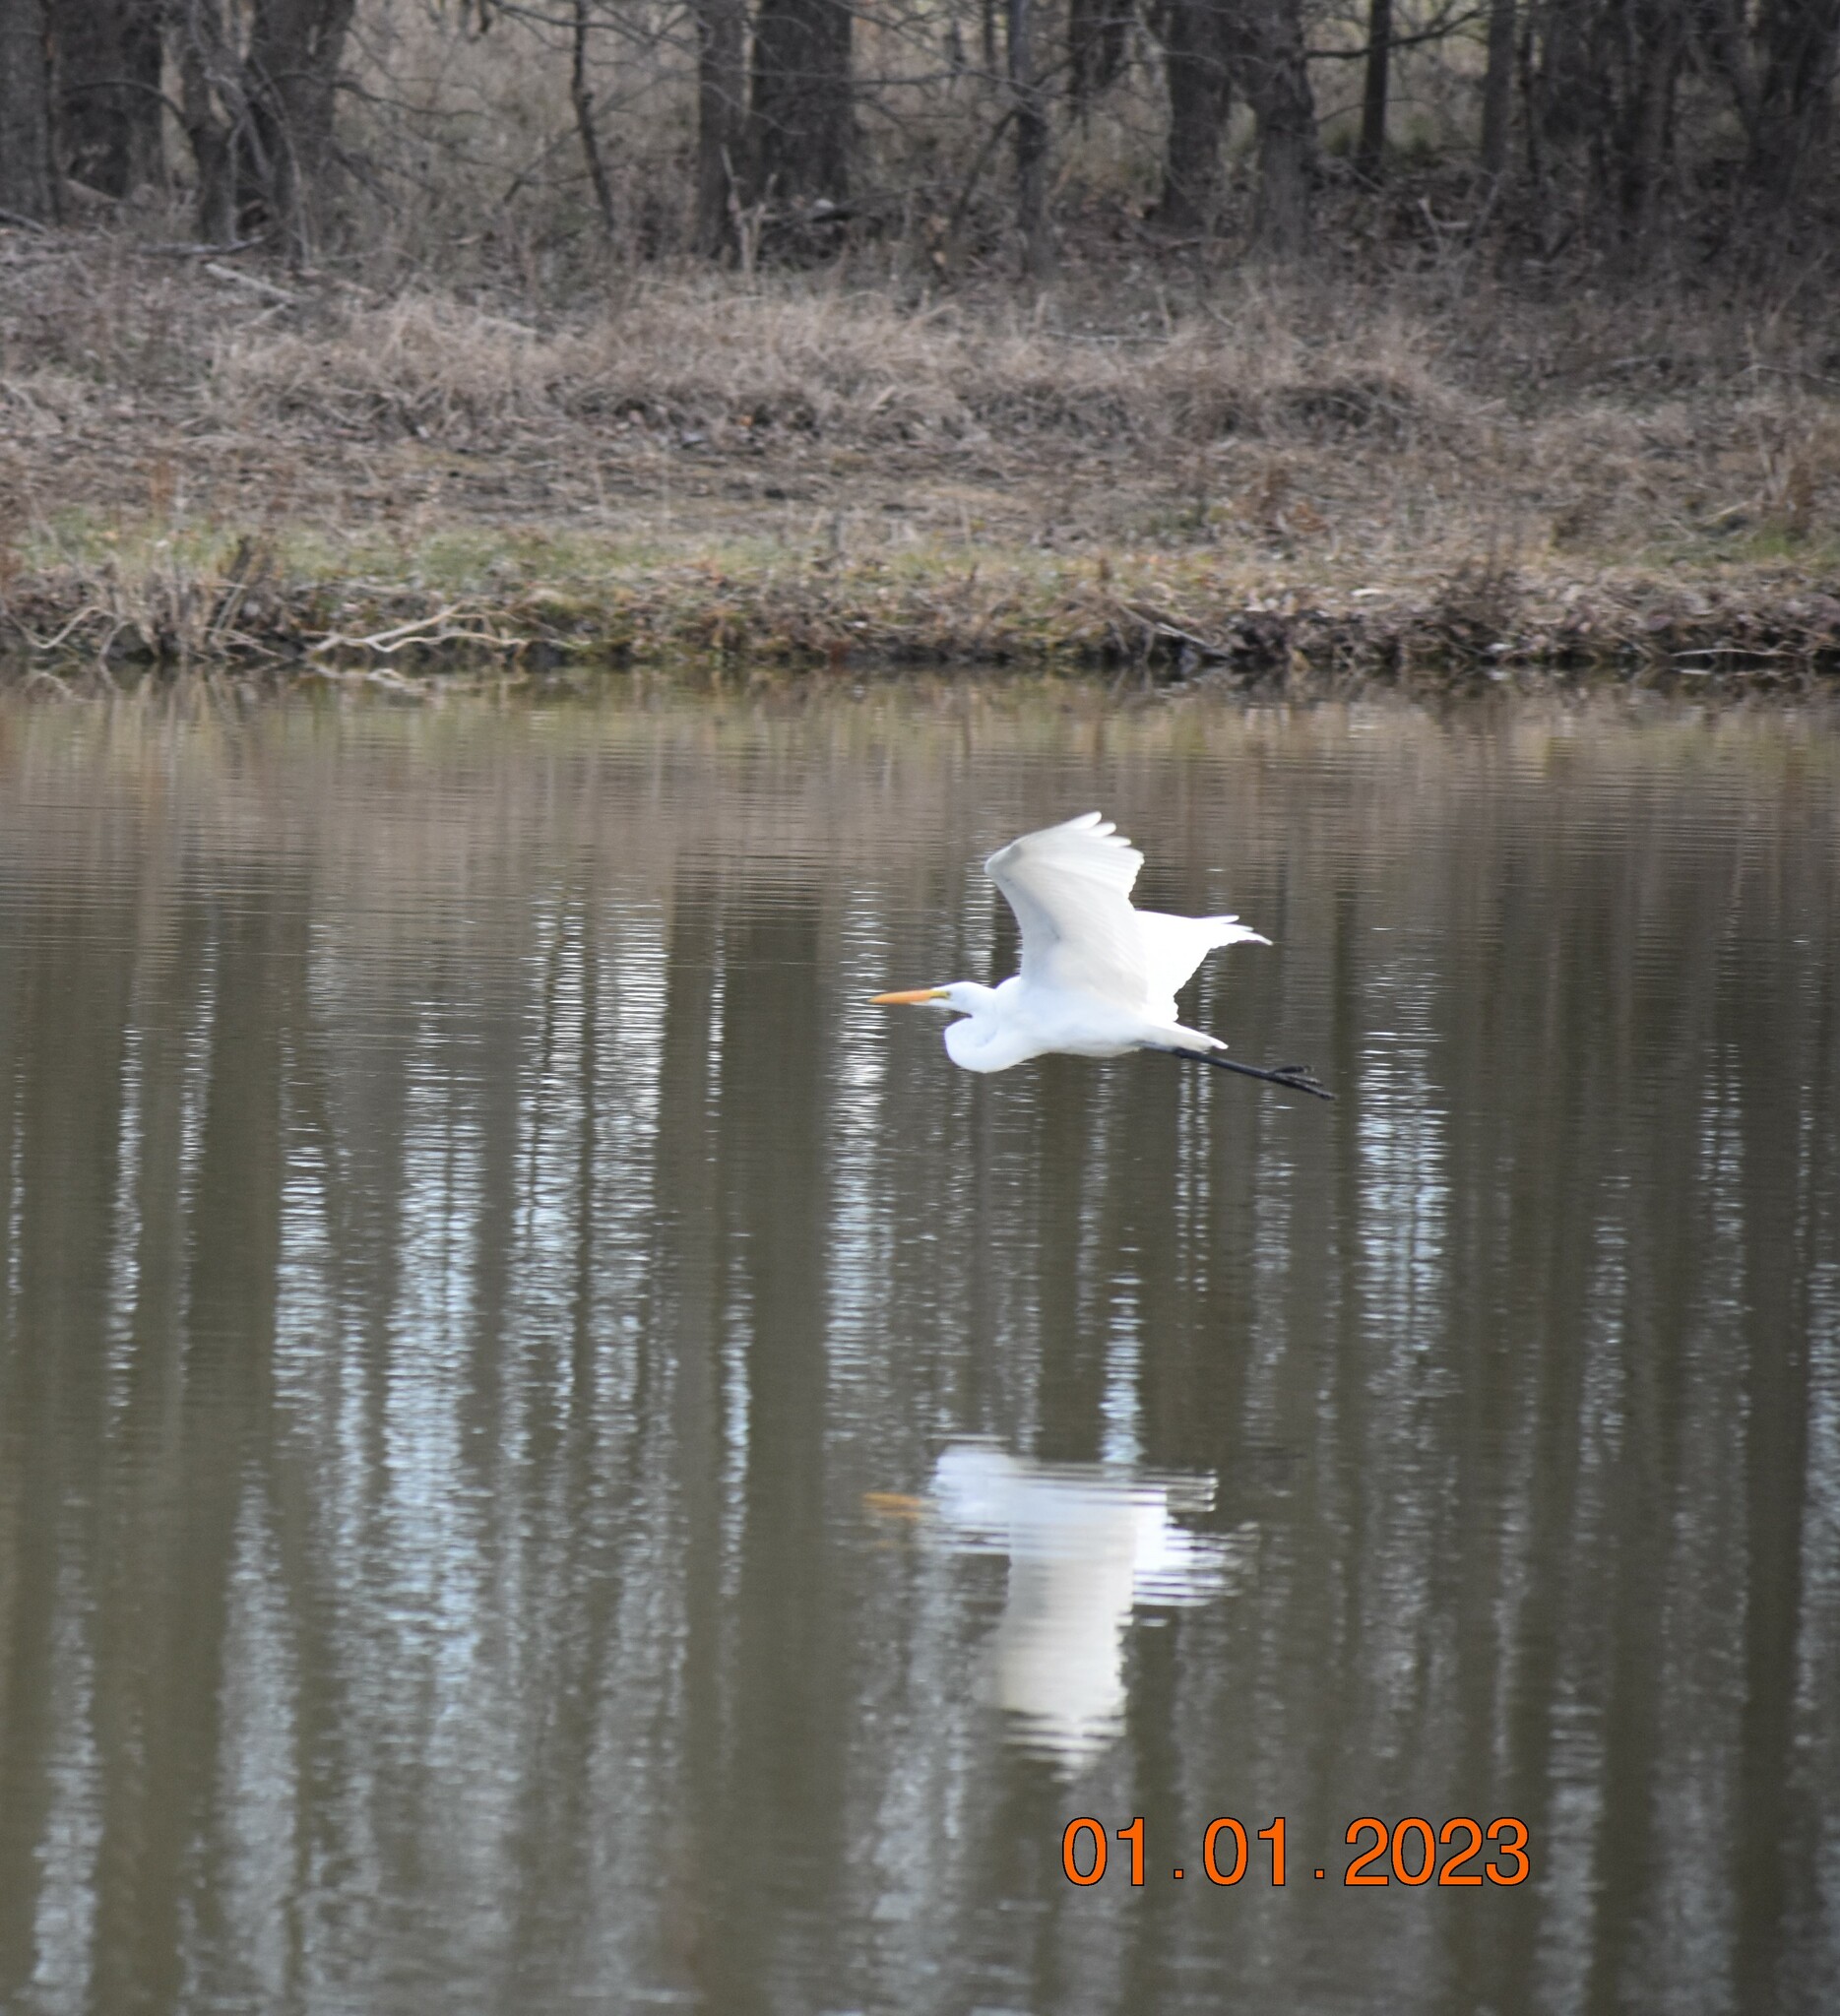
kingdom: Animalia
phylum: Chordata
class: Aves
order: Pelecaniformes
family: Ardeidae
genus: Ardea
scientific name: Ardea alba
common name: Great egret
